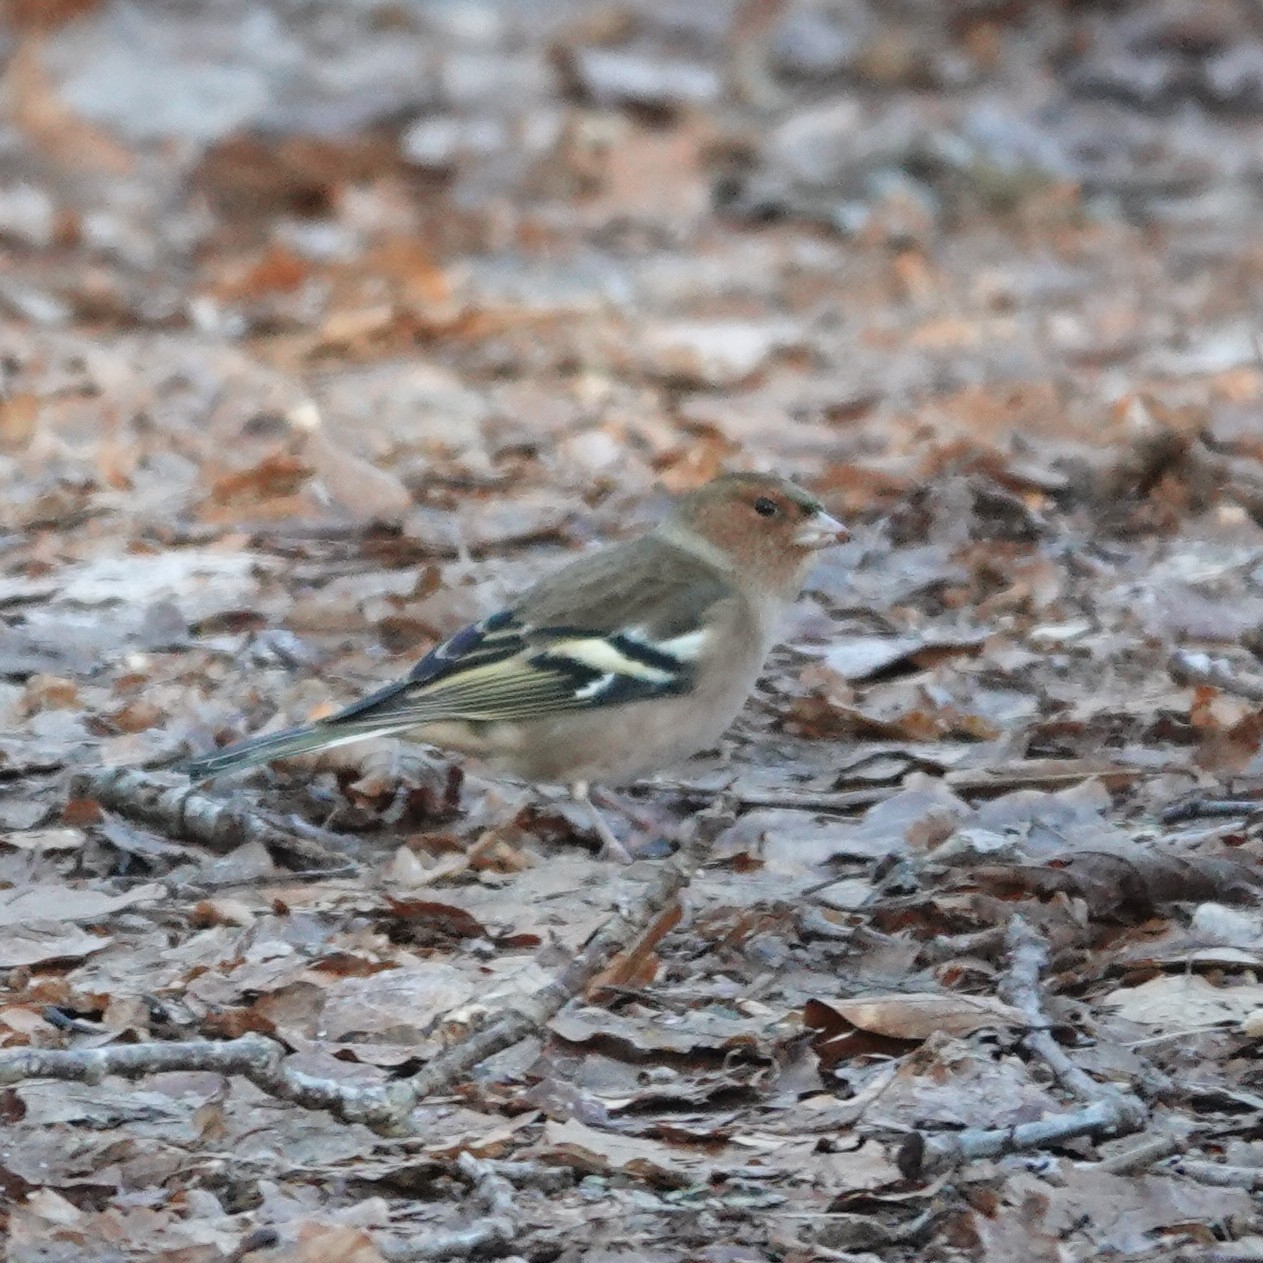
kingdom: Animalia
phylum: Chordata
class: Aves
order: Passeriformes
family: Fringillidae
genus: Fringilla
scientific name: Fringilla coelebs
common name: Common chaffinch
